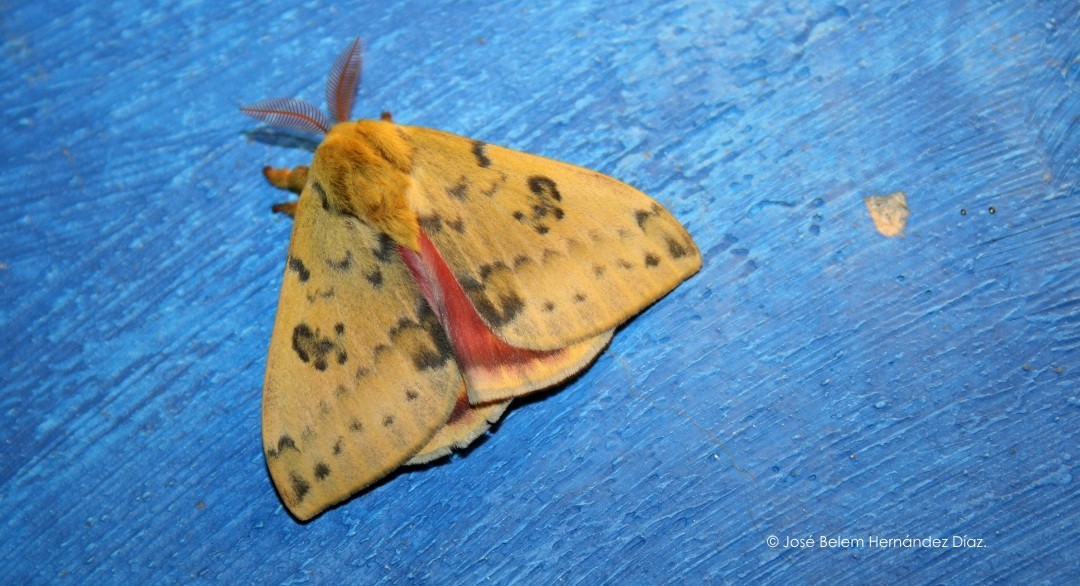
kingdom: Animalia
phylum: Arthropoda
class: Insecta
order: Lepidoptera
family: Saturniidae
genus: Automeris
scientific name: Automeris io
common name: Io moth
